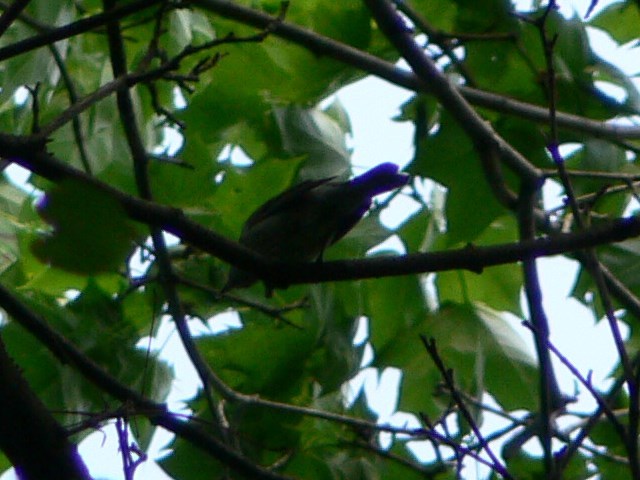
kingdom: Animalia
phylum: Chordata
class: Aves
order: Passeriformes
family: Sylviidae
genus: Sylvia
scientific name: Sylvia atricapilla
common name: Eurasian blackcap
